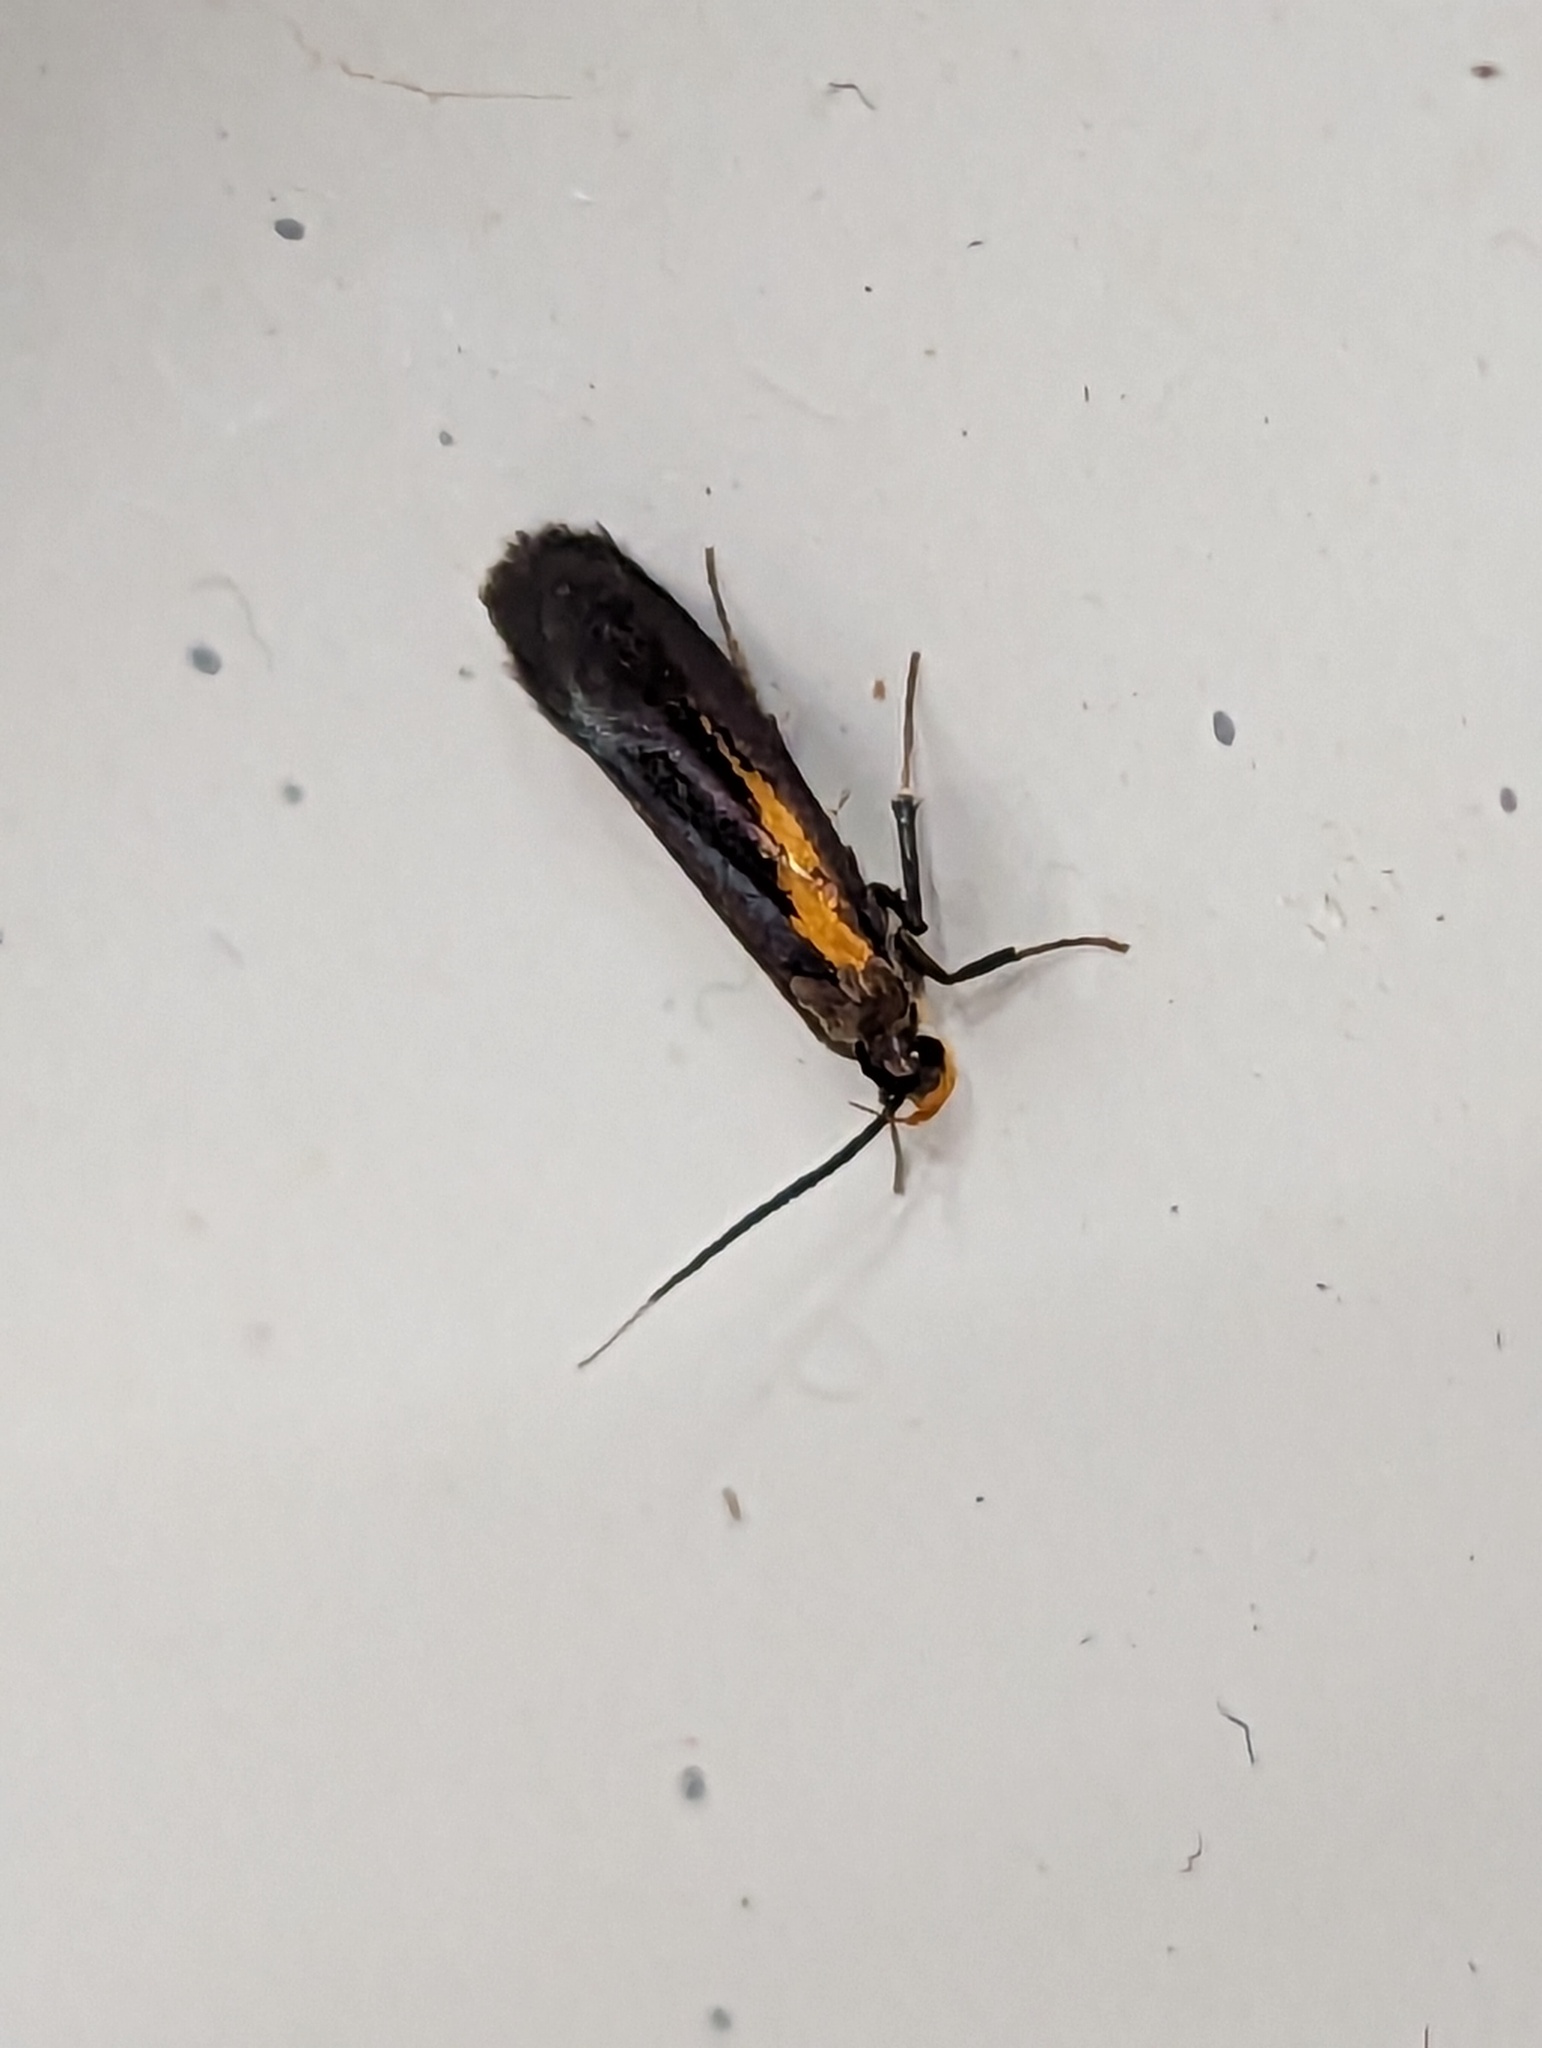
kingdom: Animalia
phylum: Arthropoda
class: Insecta
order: Lepidoptera
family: Oecophoridae
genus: Mathildana
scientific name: Mathildana newmanella
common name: Newman's mathildana moth
